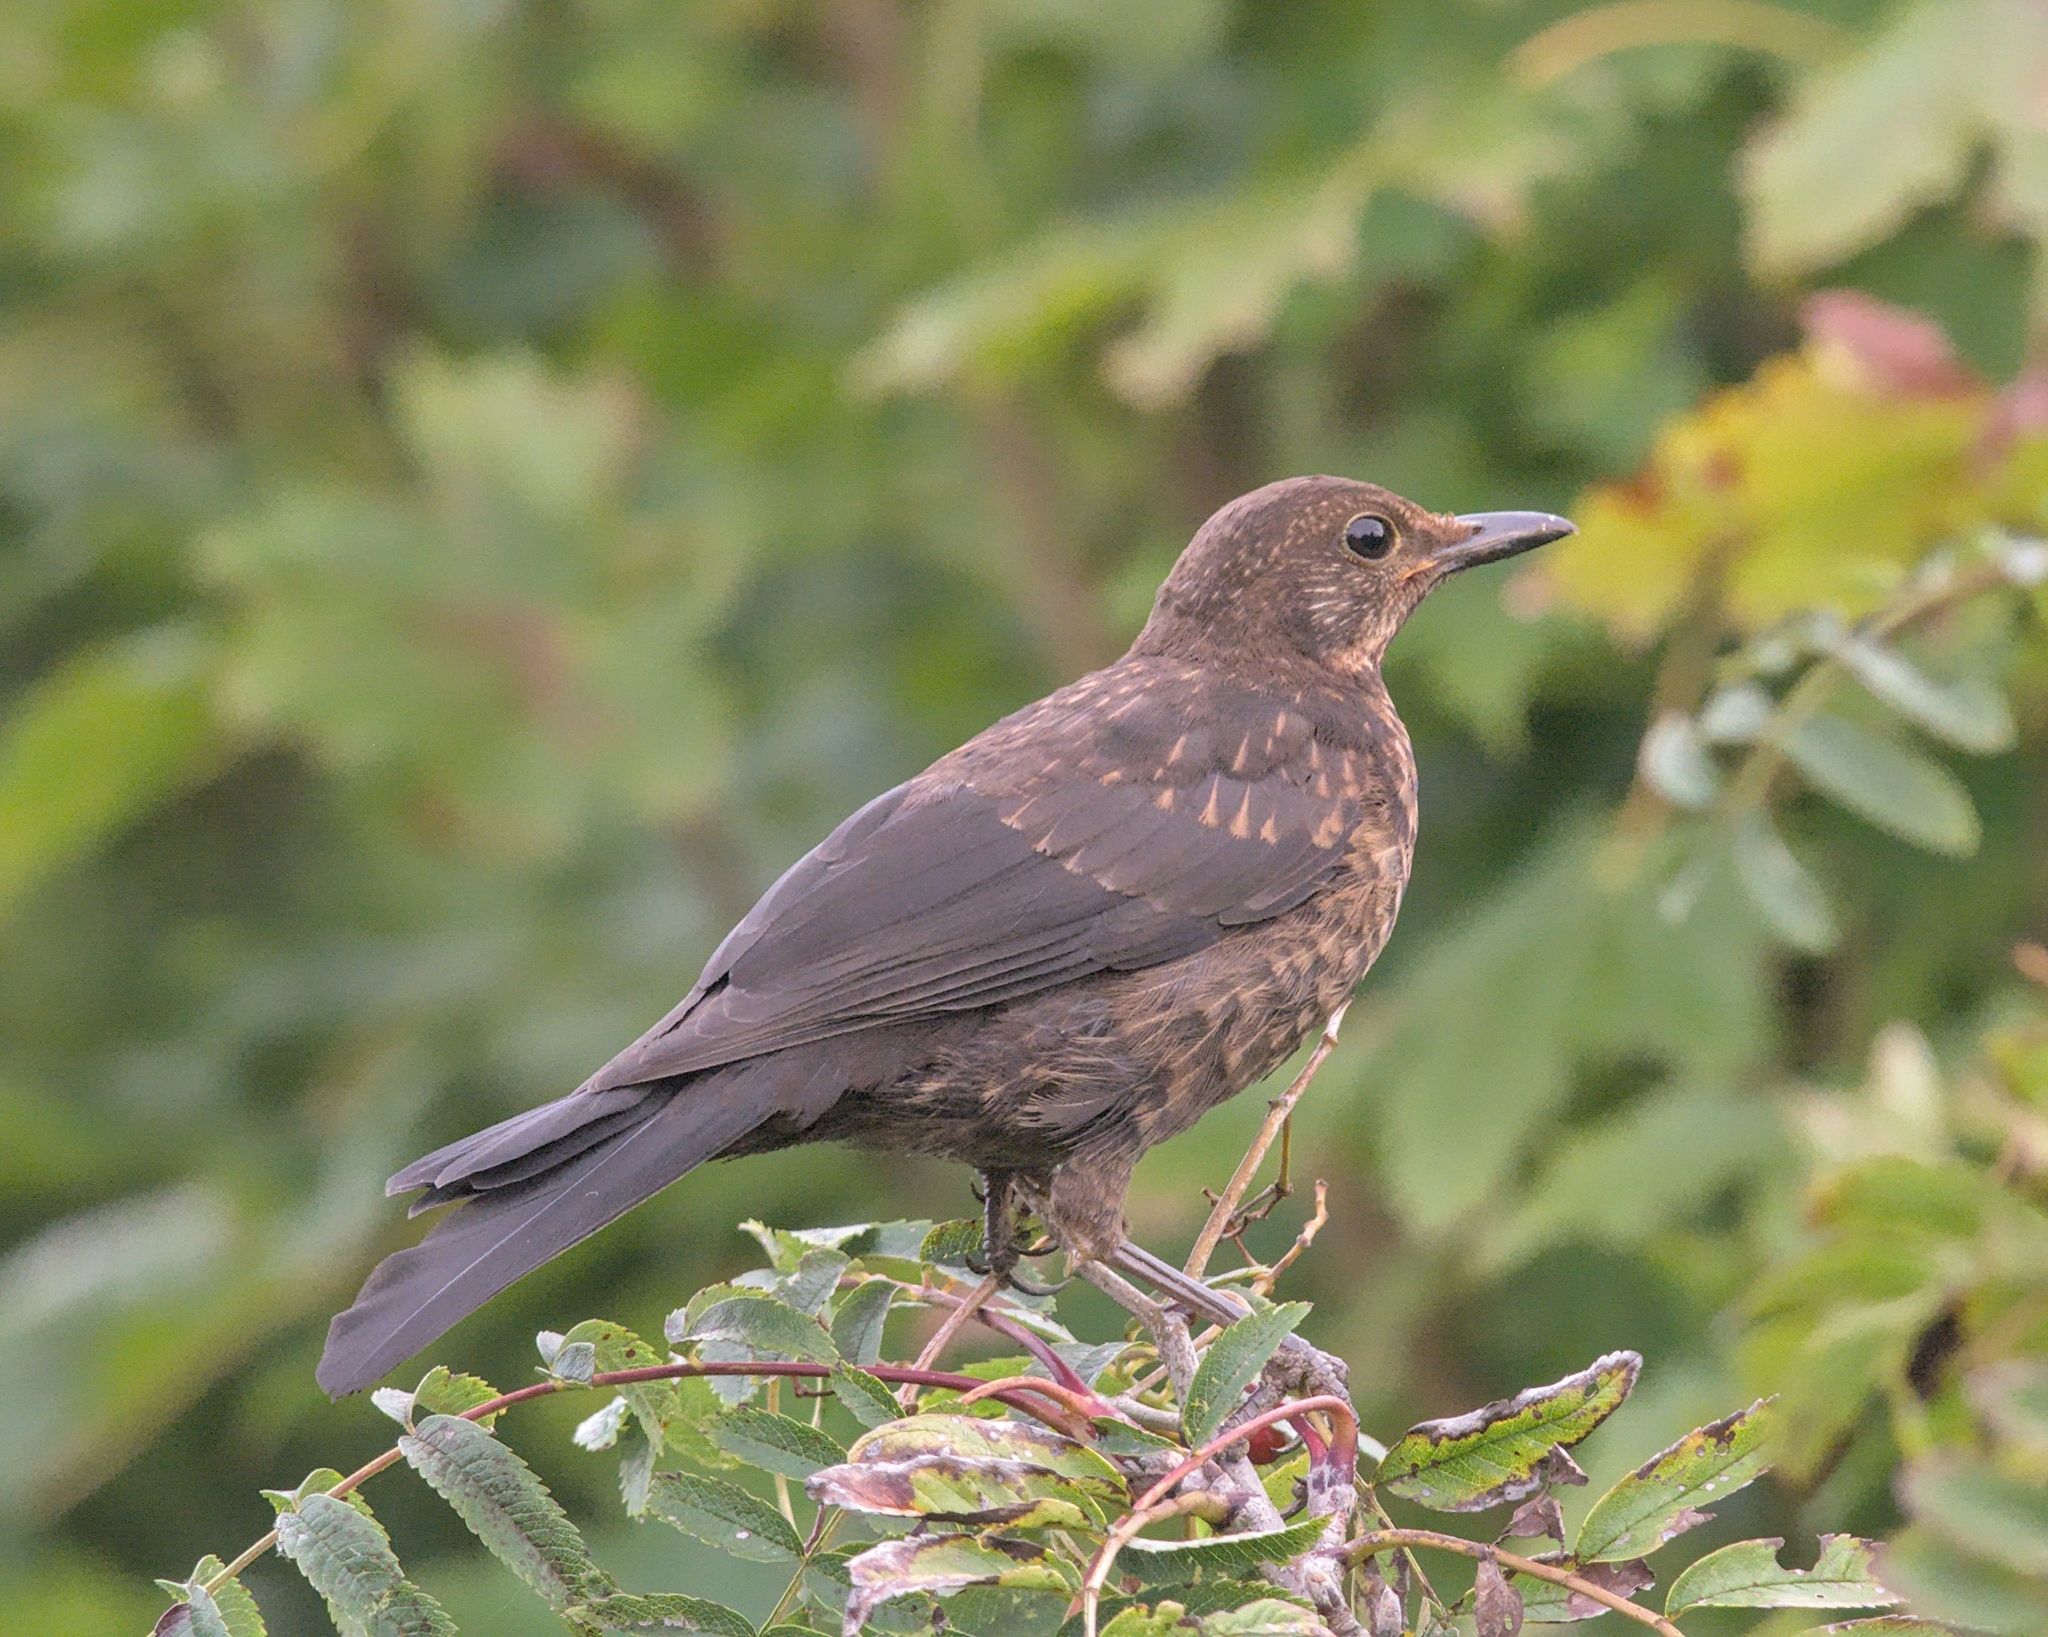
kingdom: Animalia
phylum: Chordata
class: Aves
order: Passeriformes
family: Turdidae
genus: Turdus
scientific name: Turdus merula
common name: Common blackbird
